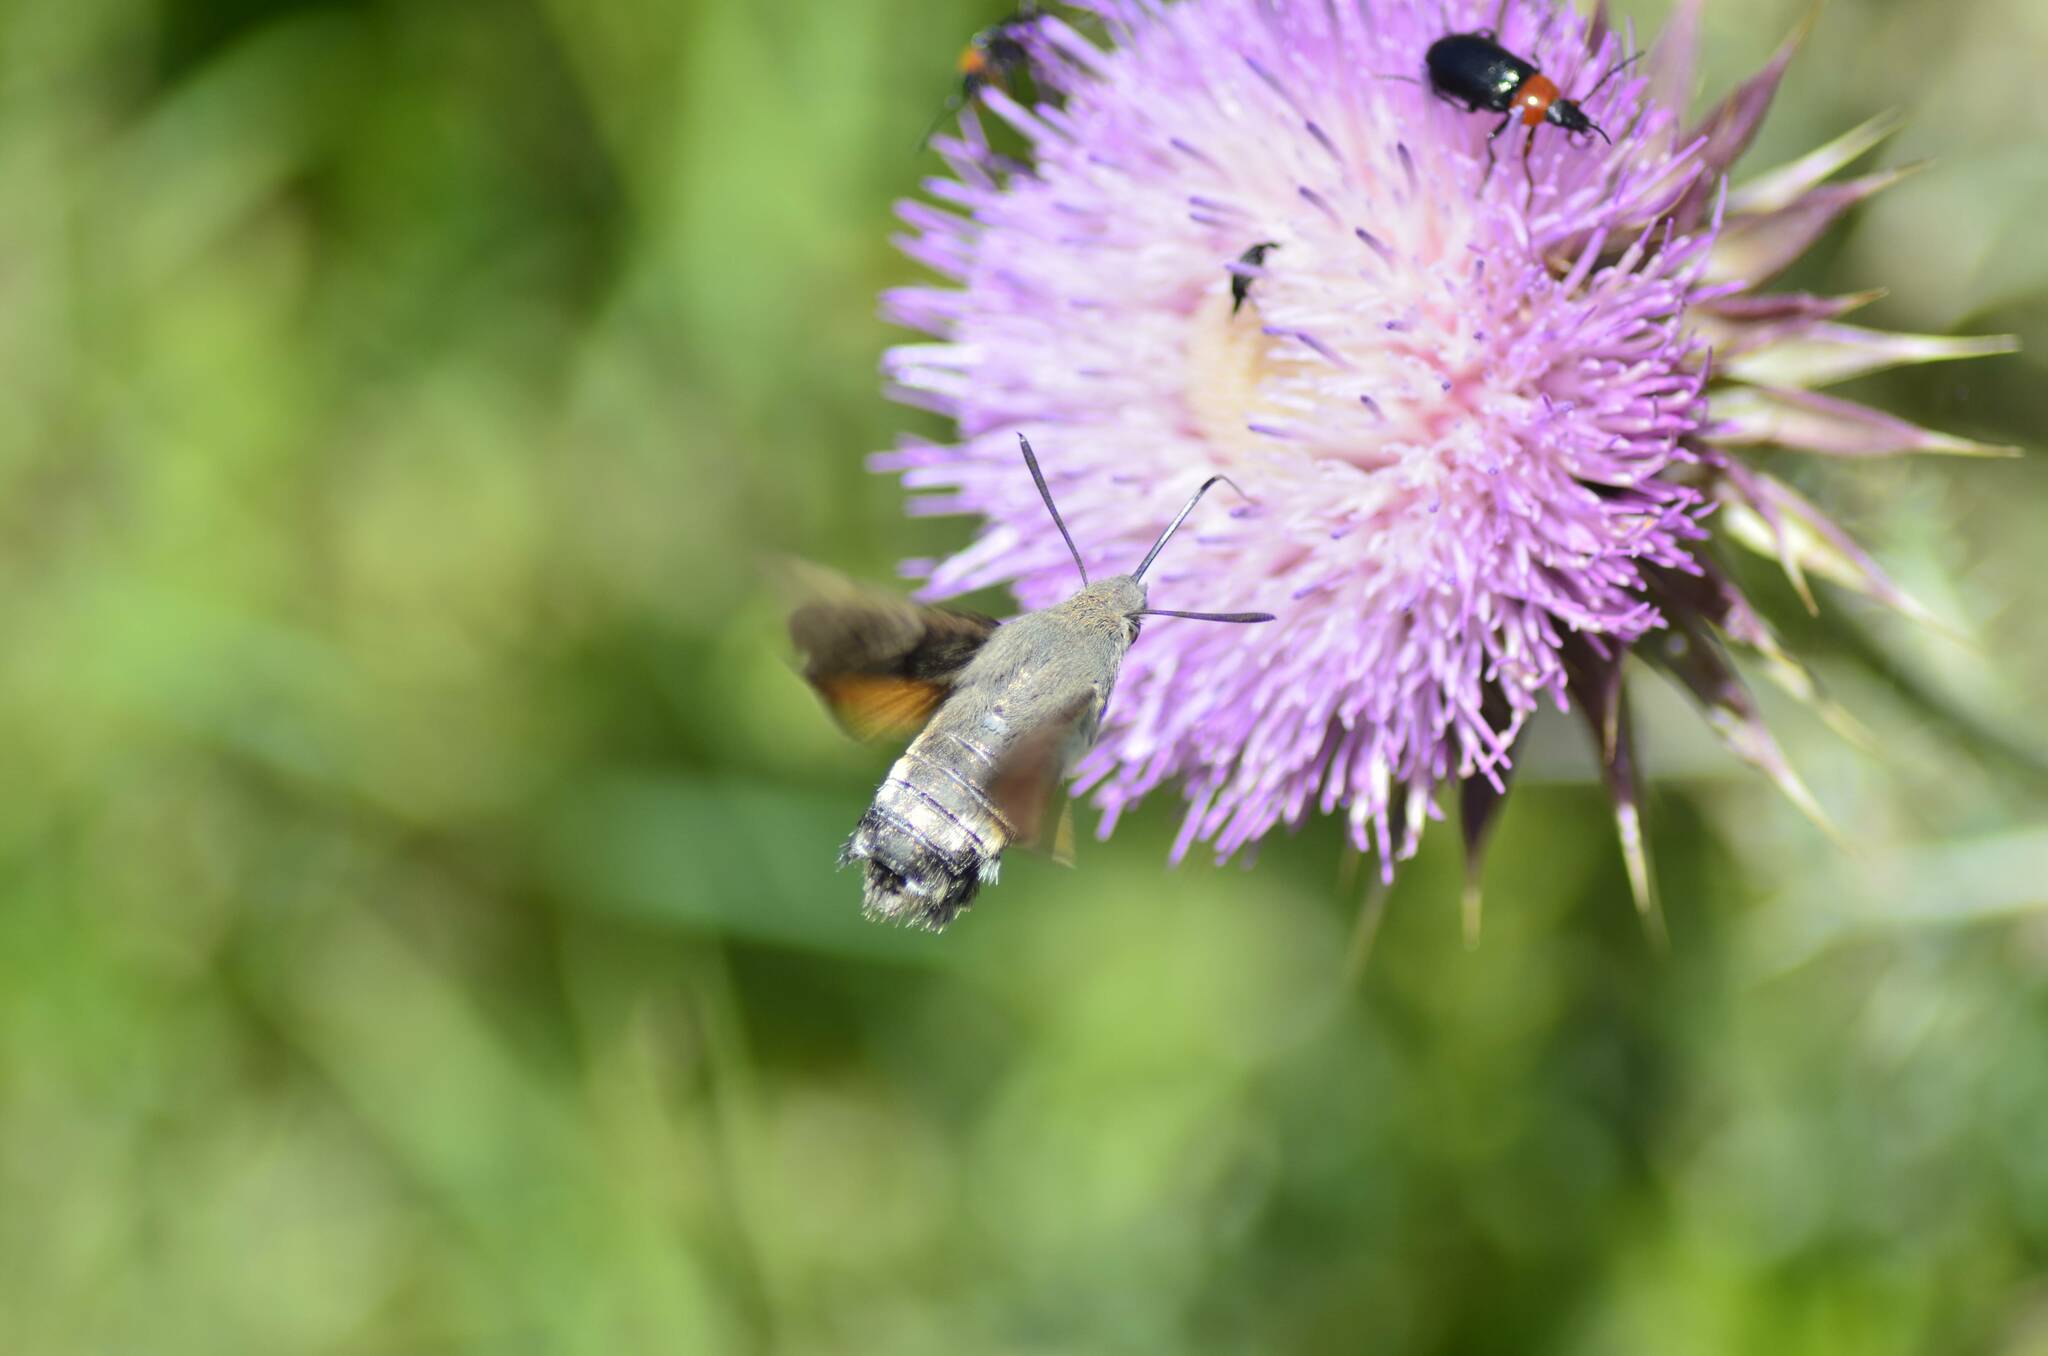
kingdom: Animalia
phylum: Arthropoda
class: Insecta
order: Lepidoptera
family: Sphingidae
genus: Macroglossum
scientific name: Macroglossum stellatarum
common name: Humming-bird hawk-moth
